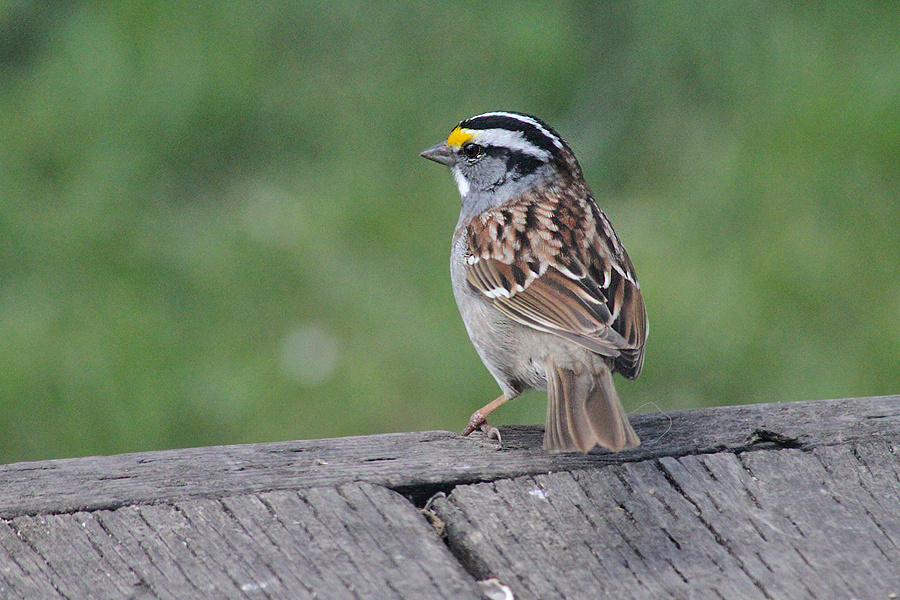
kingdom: Animalia
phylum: Chordata
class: Aves
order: Passeriformes
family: Passerellidae
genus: Zonotrichia
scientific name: Zonotrichia albicollis
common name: White-throated sparrow
